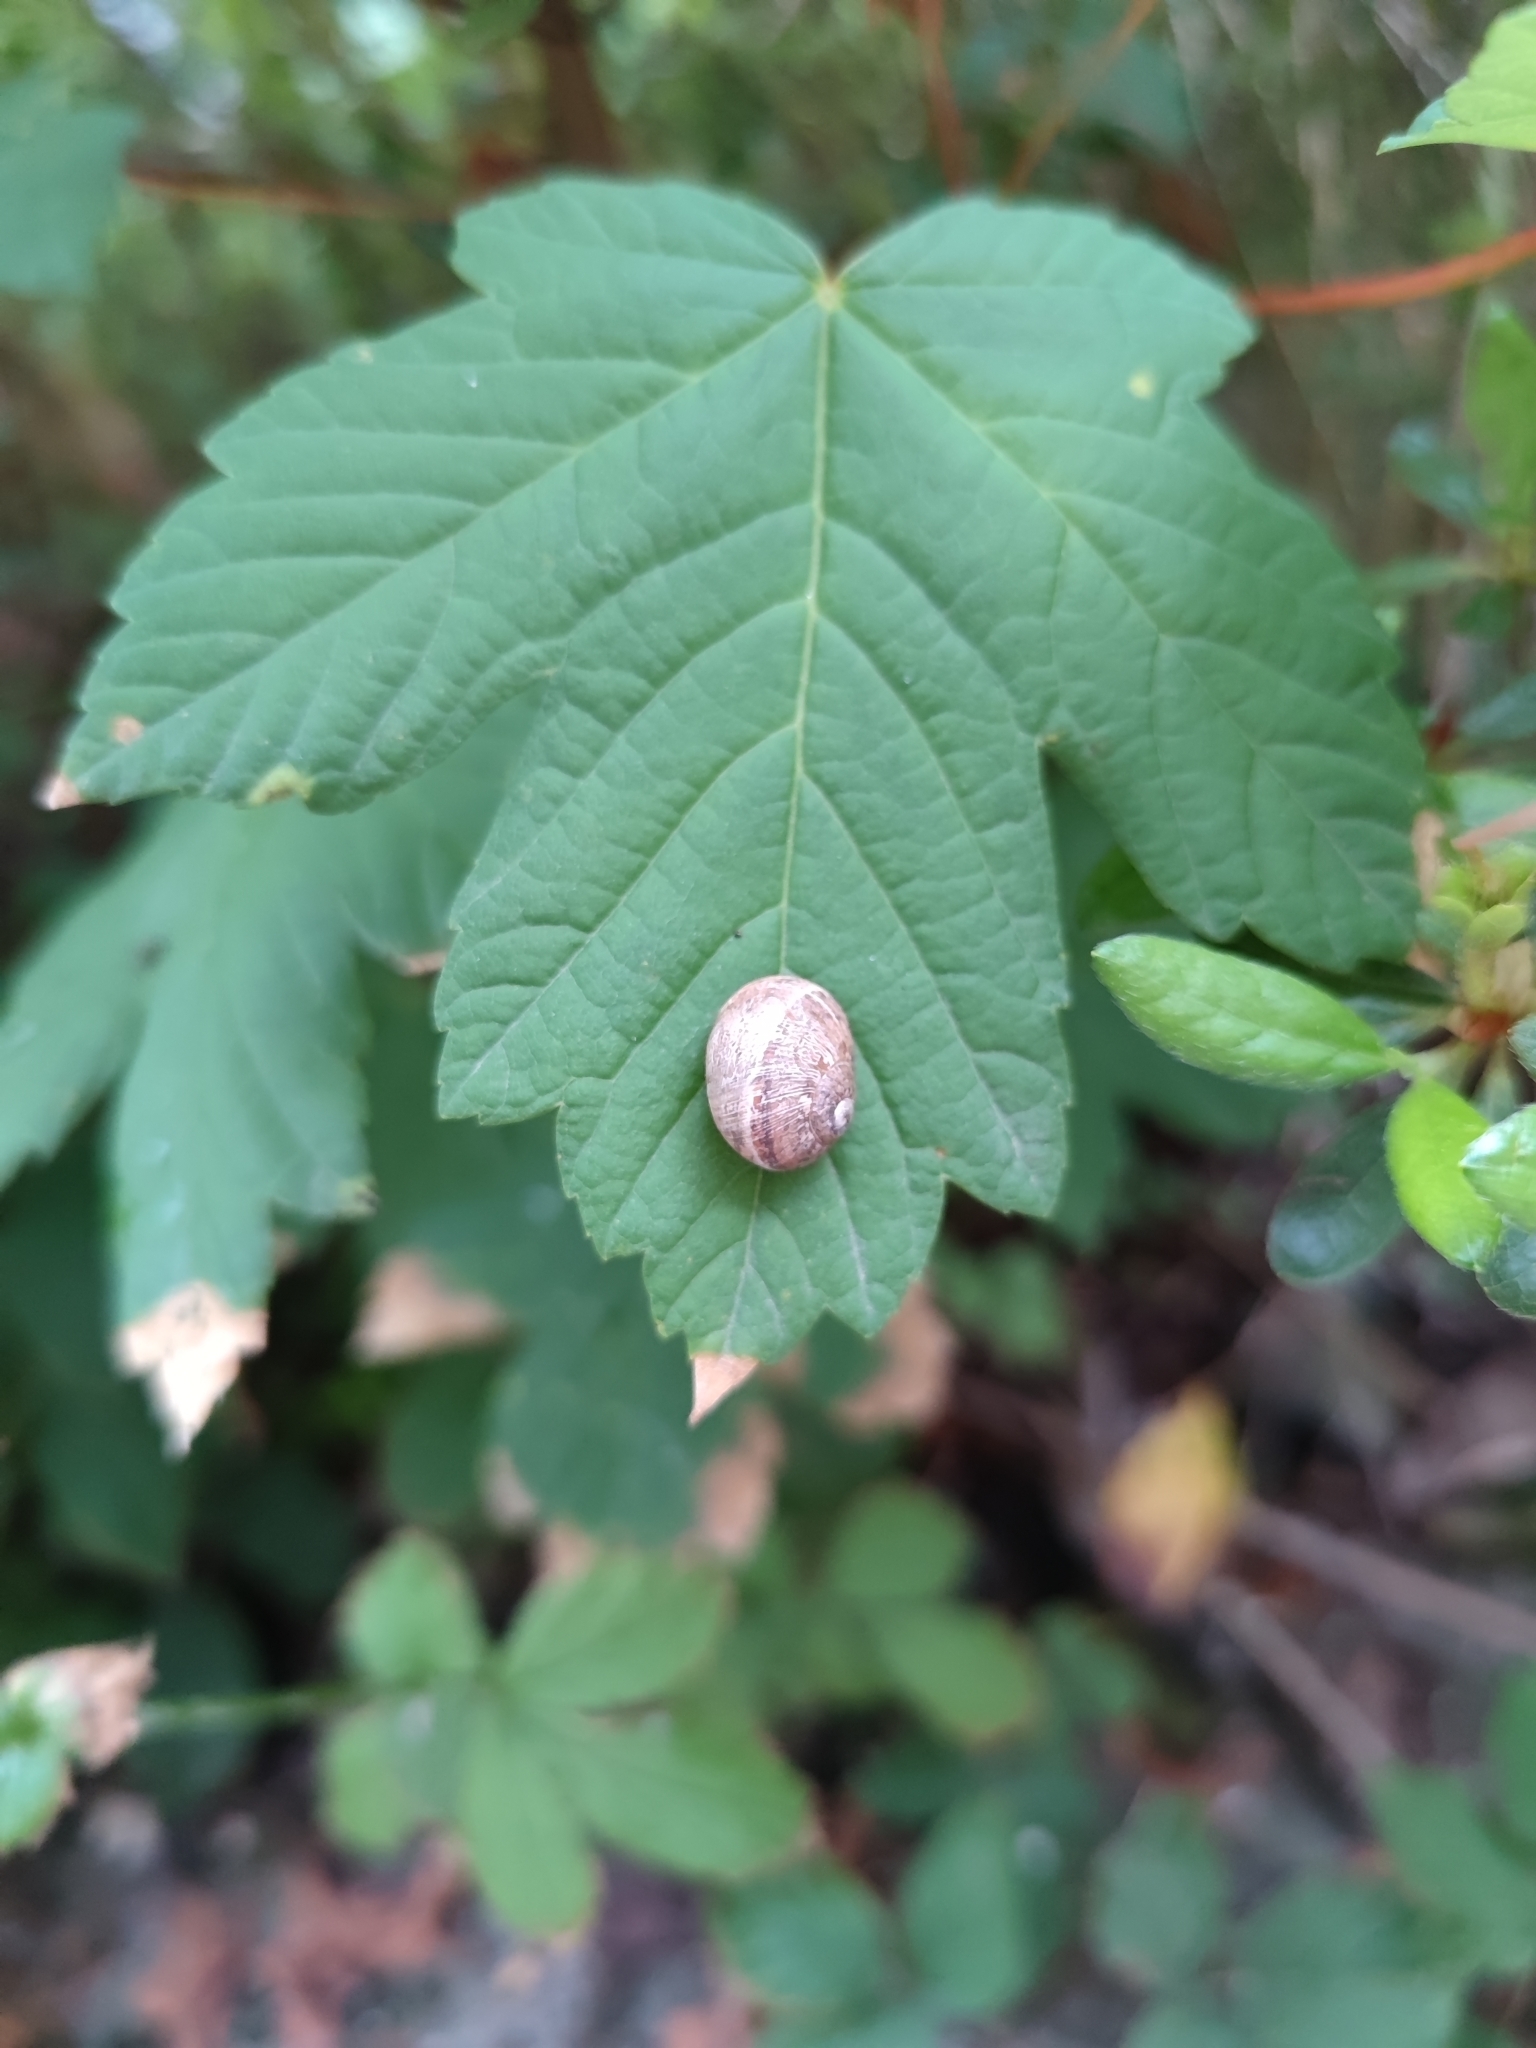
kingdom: Animalia
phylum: Mollusca
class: Gastropoda
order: Stylommatophora
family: Helicidae
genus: Cornu
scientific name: Cornu aspersum
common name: Brown garden snail
